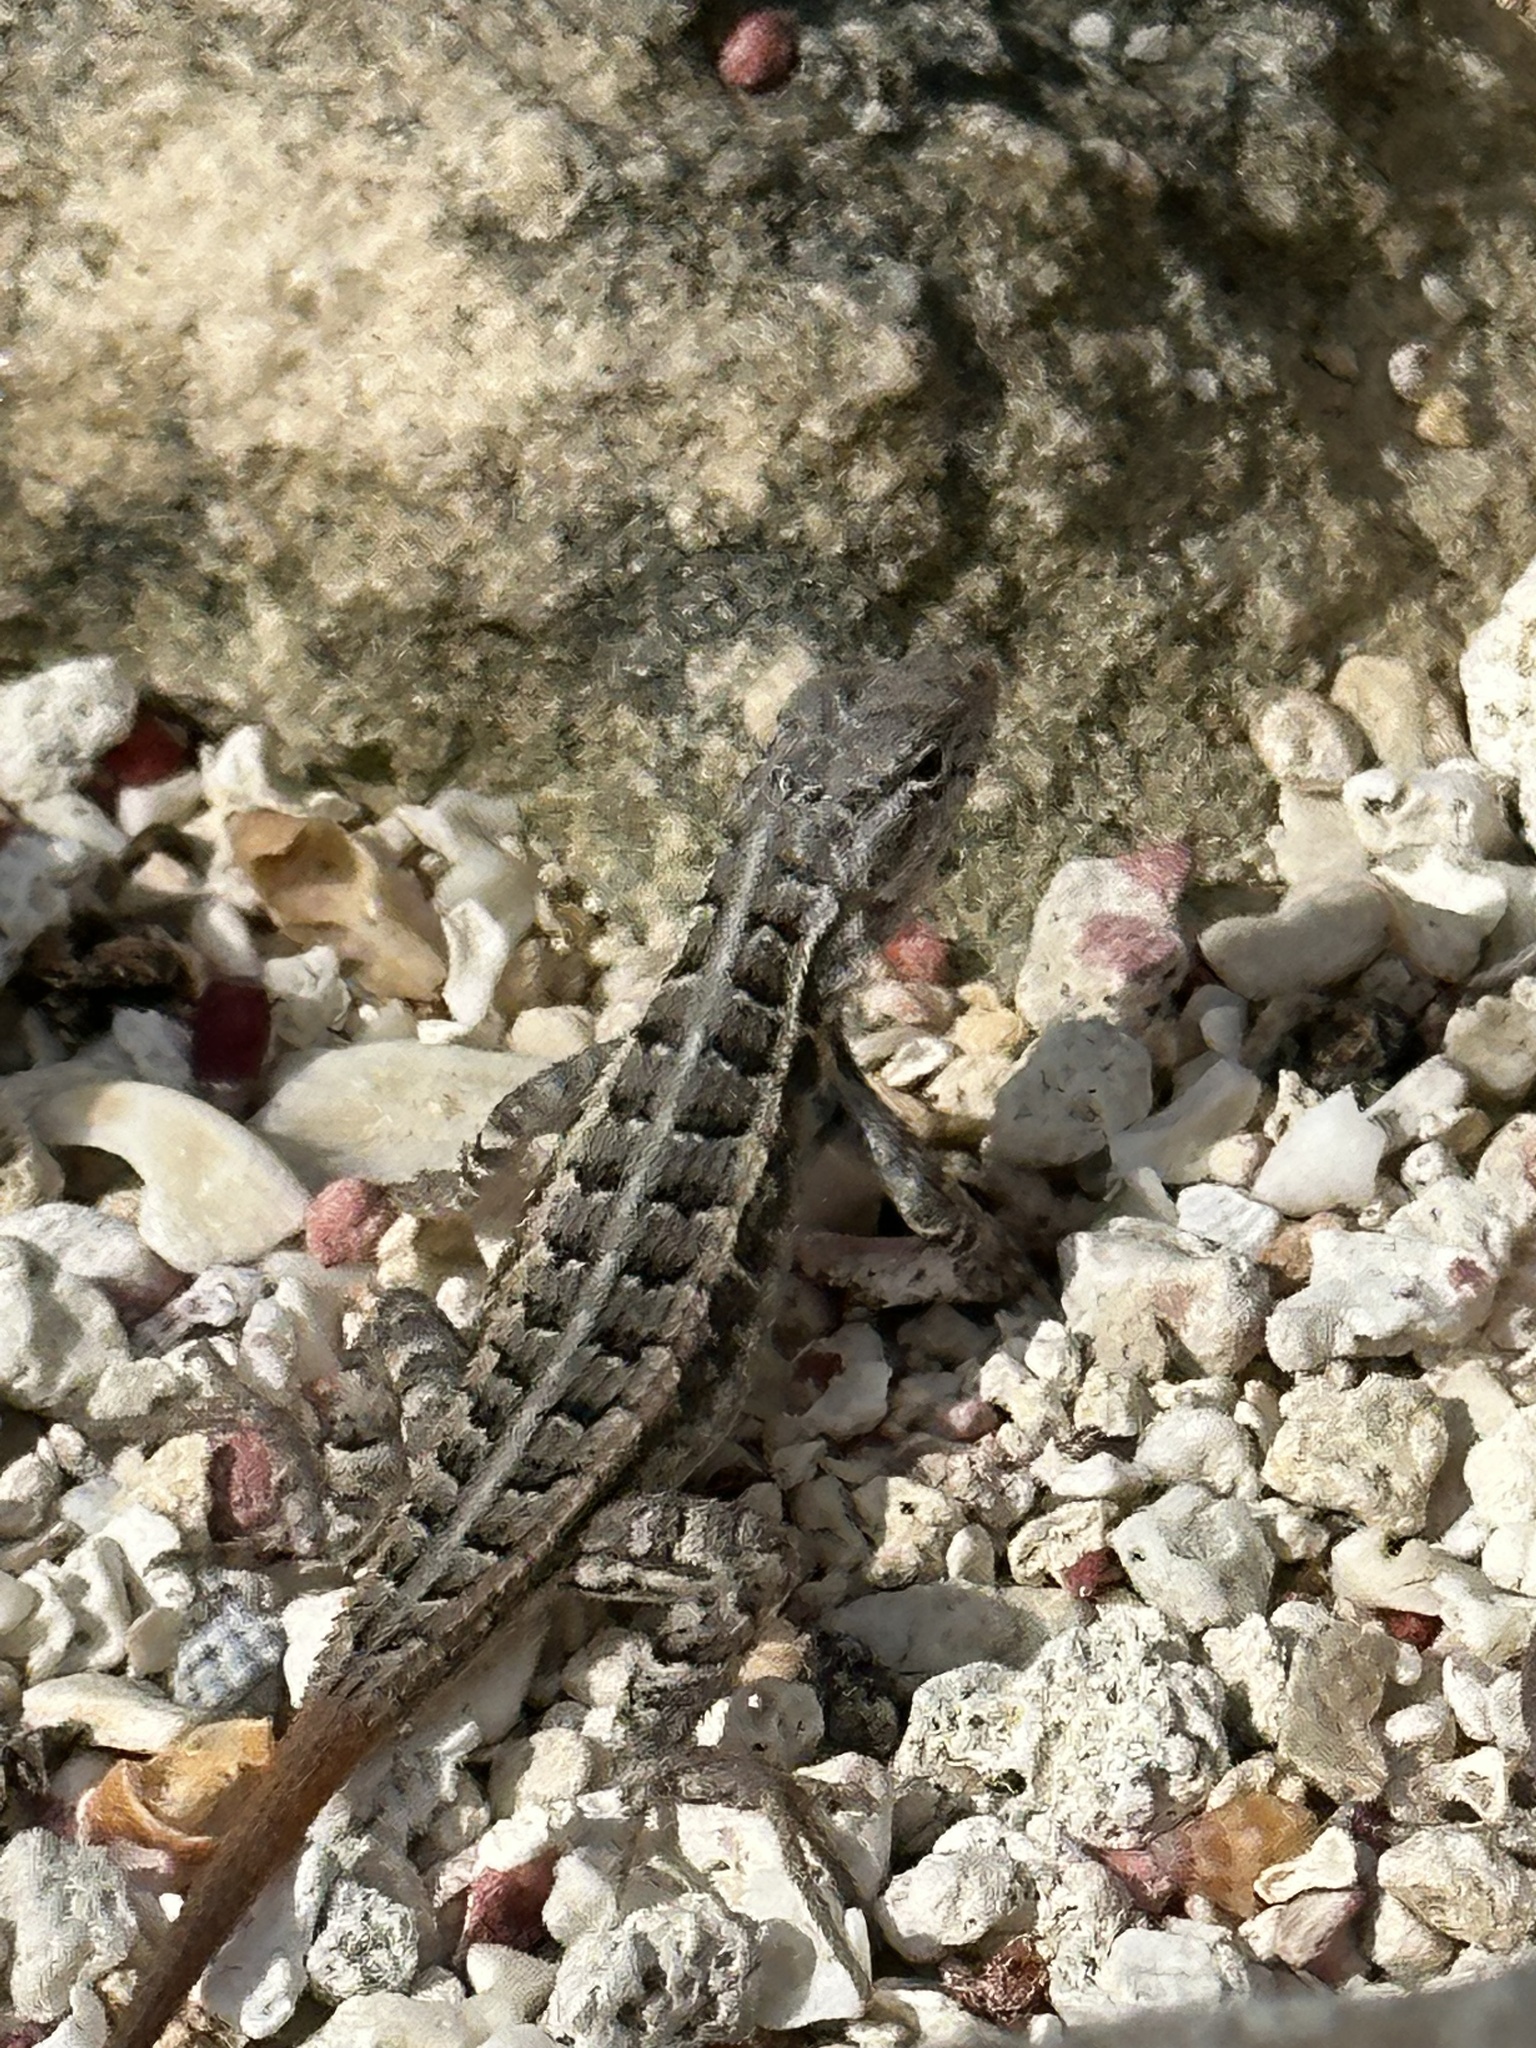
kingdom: Animalia
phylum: Chordata
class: Squamata
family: Phrynosomatidae
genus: Sceloporus
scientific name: Sceloporus cozumelae
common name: Cozumel spiny lizard
